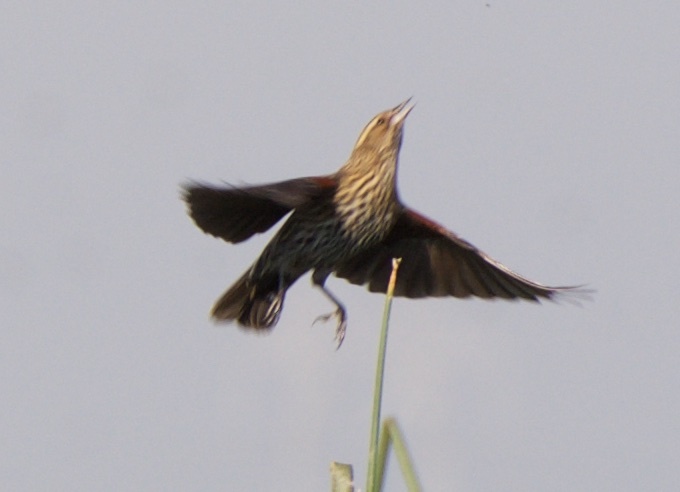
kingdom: Animalia
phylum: Chordata
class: Aves
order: Passeriformes
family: Icteridae
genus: Agelaius
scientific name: Agelaius phoeniceus
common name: Red-winged blackbird
